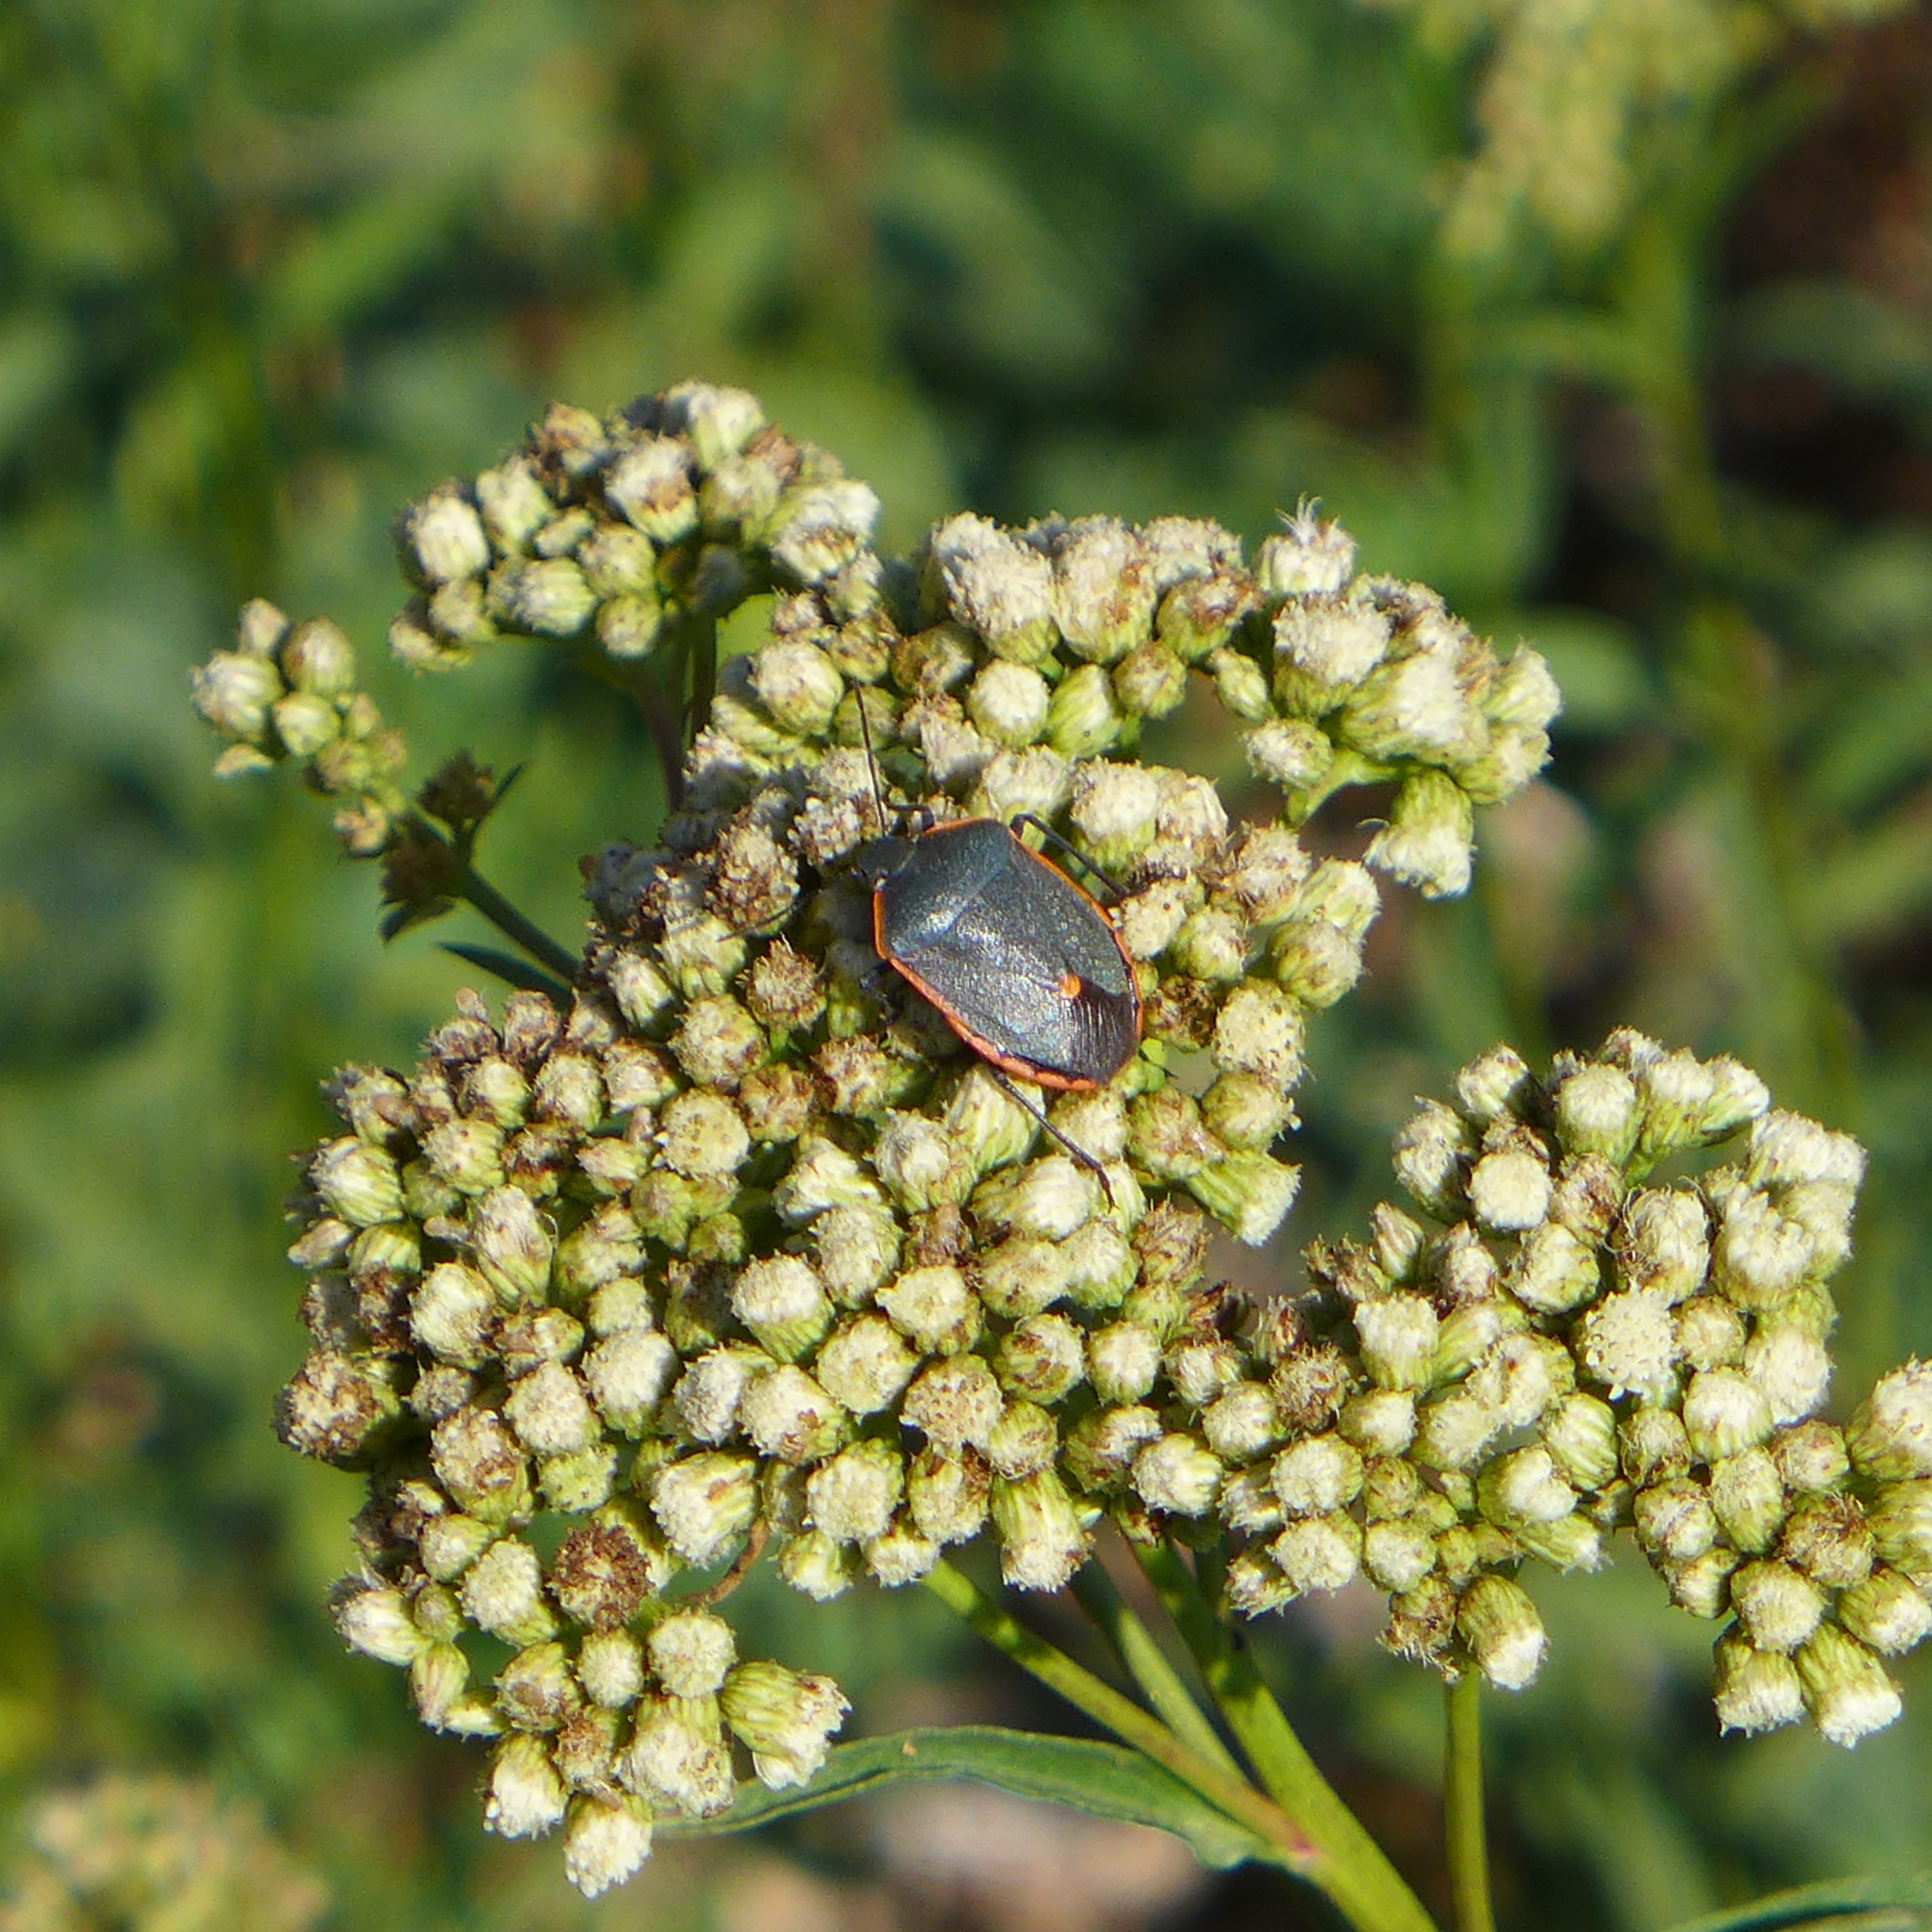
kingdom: Animalia
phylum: Arthropoda
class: Insecta
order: Hemiptera
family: Pentatomidae
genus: Chlorochroa
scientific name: Chlorochroa rossiana
